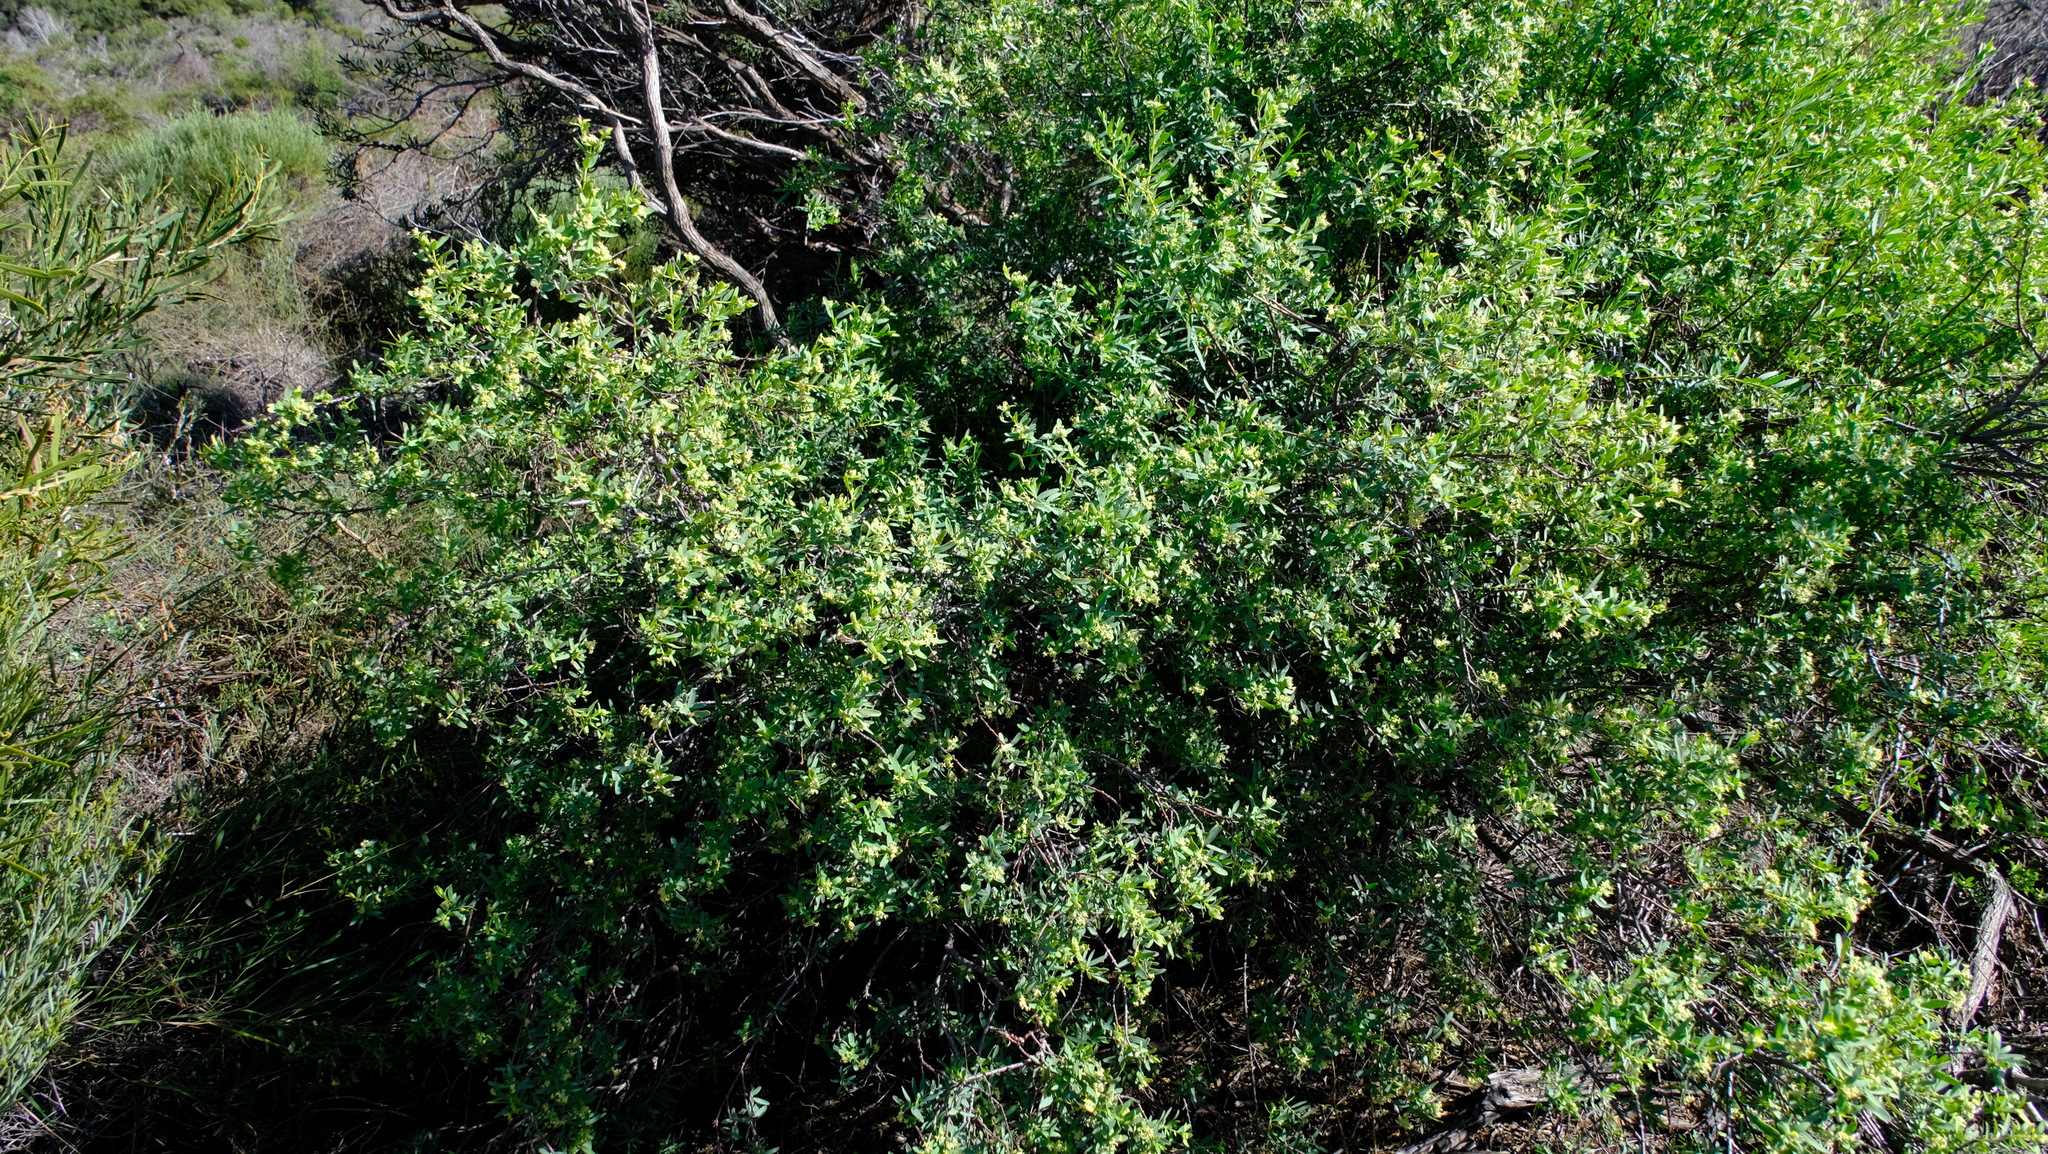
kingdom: Plantae
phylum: Tracheophyta
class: Magnoliopsida
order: Malvales
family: Thymelaeaceae
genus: Pimelea
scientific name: Pimelea microcephala
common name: Mallee riceflower
